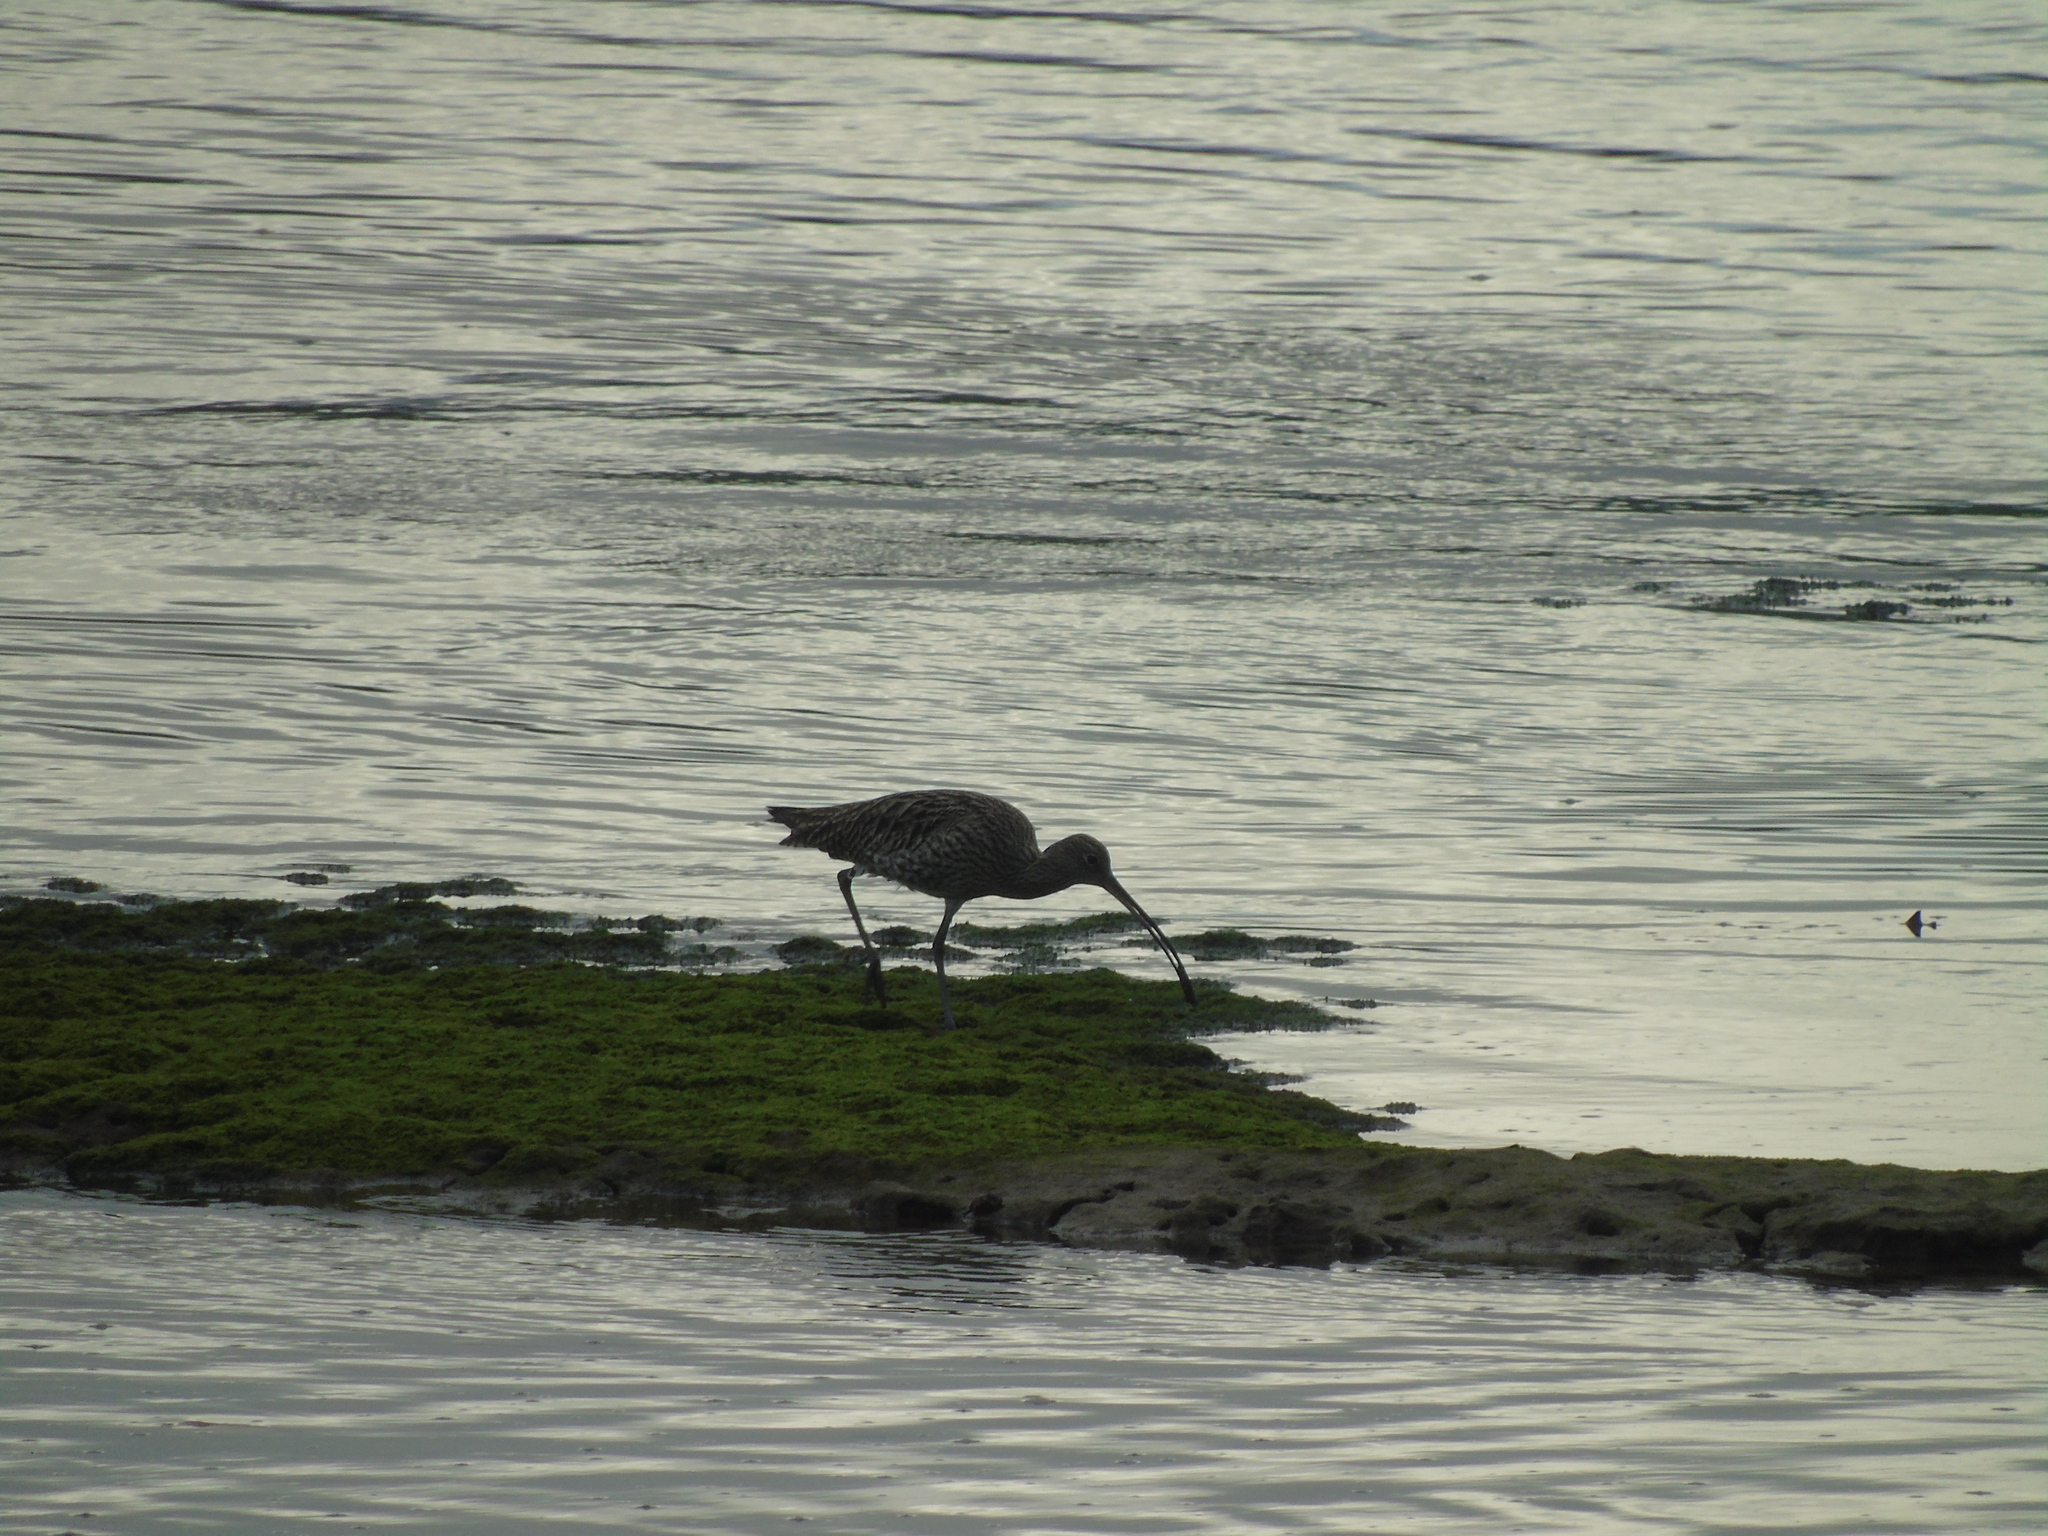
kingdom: Animalia
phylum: Chordata
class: Aves
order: Charadriiformes
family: Scolopacidae
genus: Numenius
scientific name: Numenius arquata
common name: Eurasian curlew
